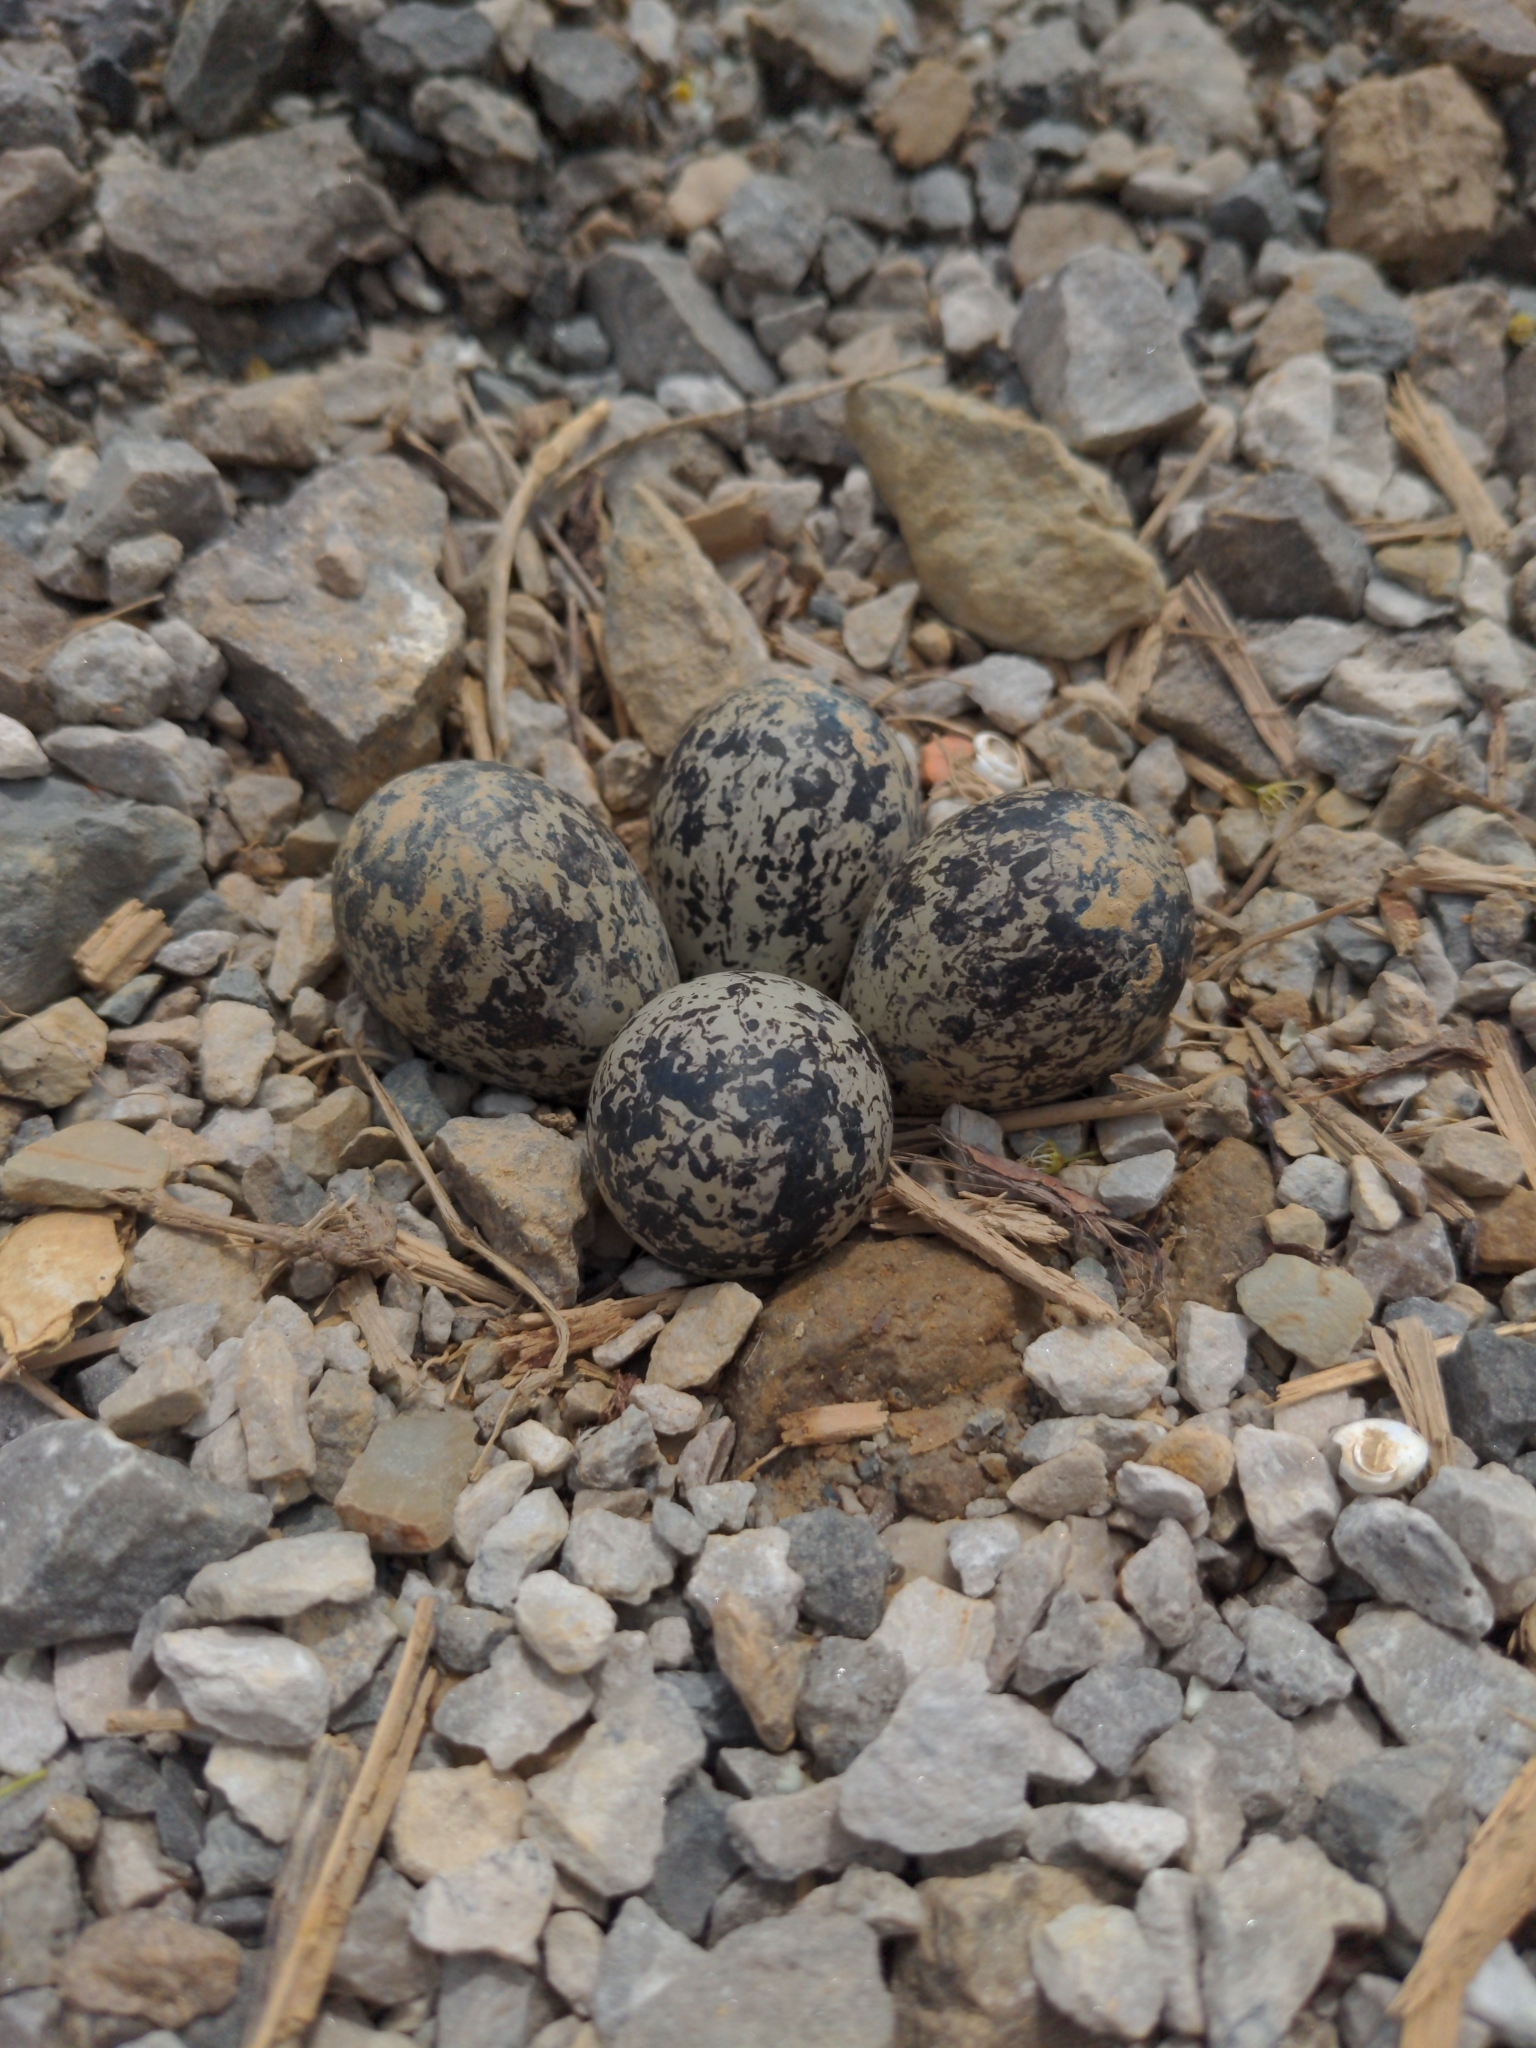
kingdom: Animalia
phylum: Chordata
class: Aves
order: Charadriiformes
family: Charadriidae
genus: Charadrius
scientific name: Charadrius vociferus
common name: Killdeer
